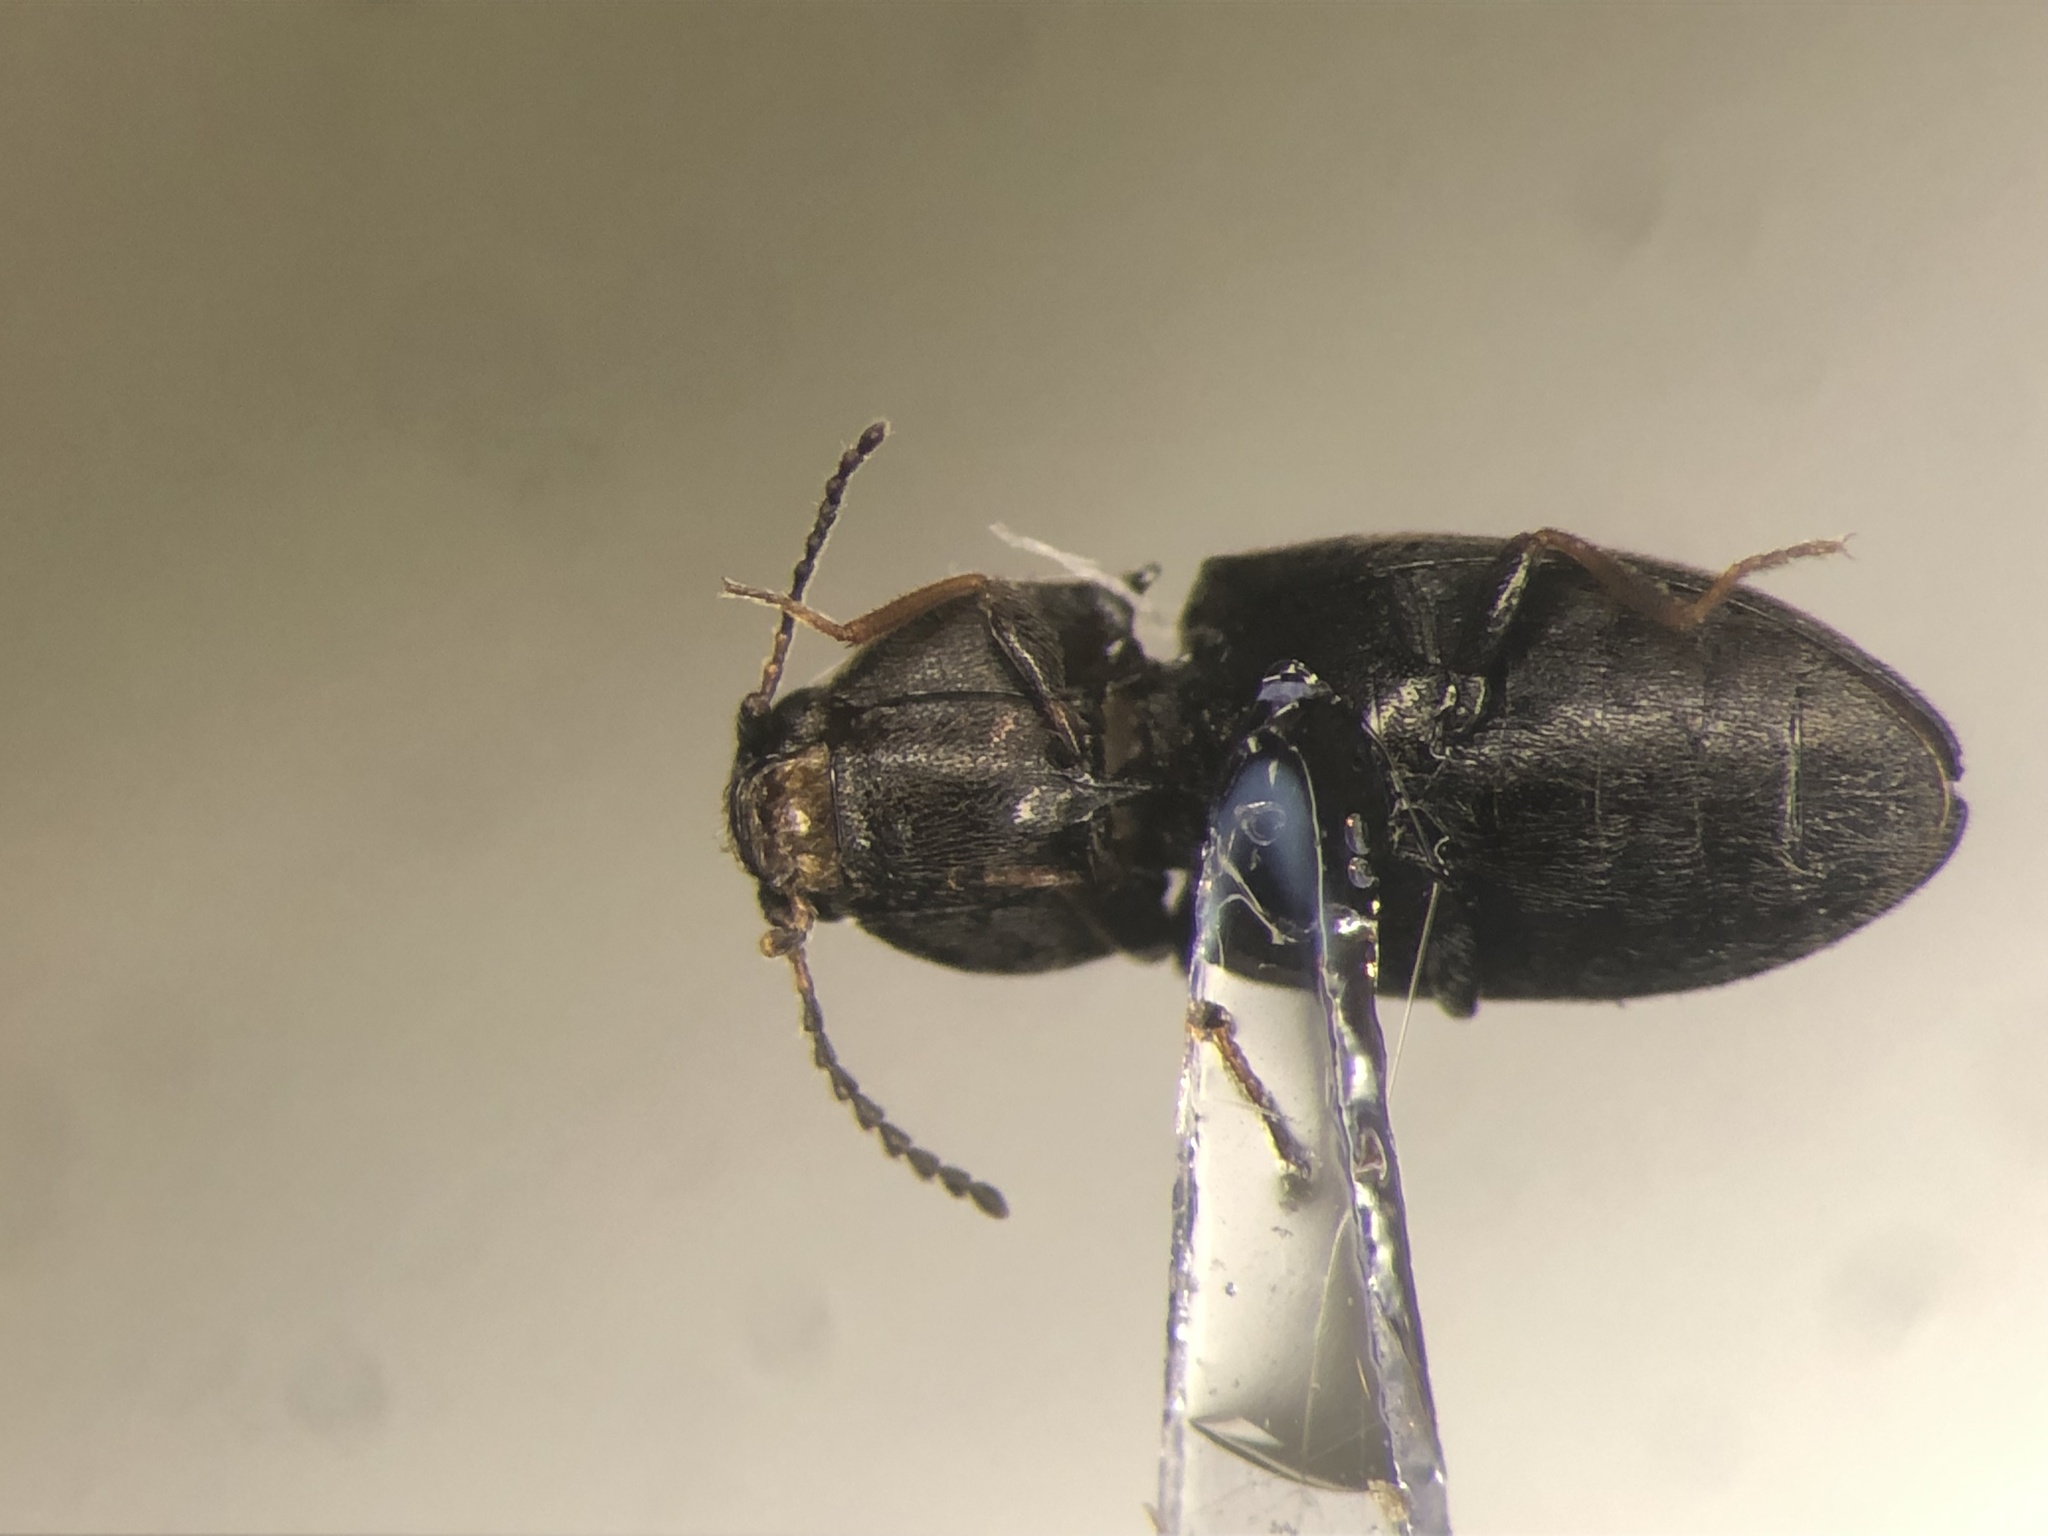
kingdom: Animalia
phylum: Arthropoda
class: Insecta
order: Coleoptera
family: Elateridae
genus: Neohypdonus
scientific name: Neohypdonus tumescens
